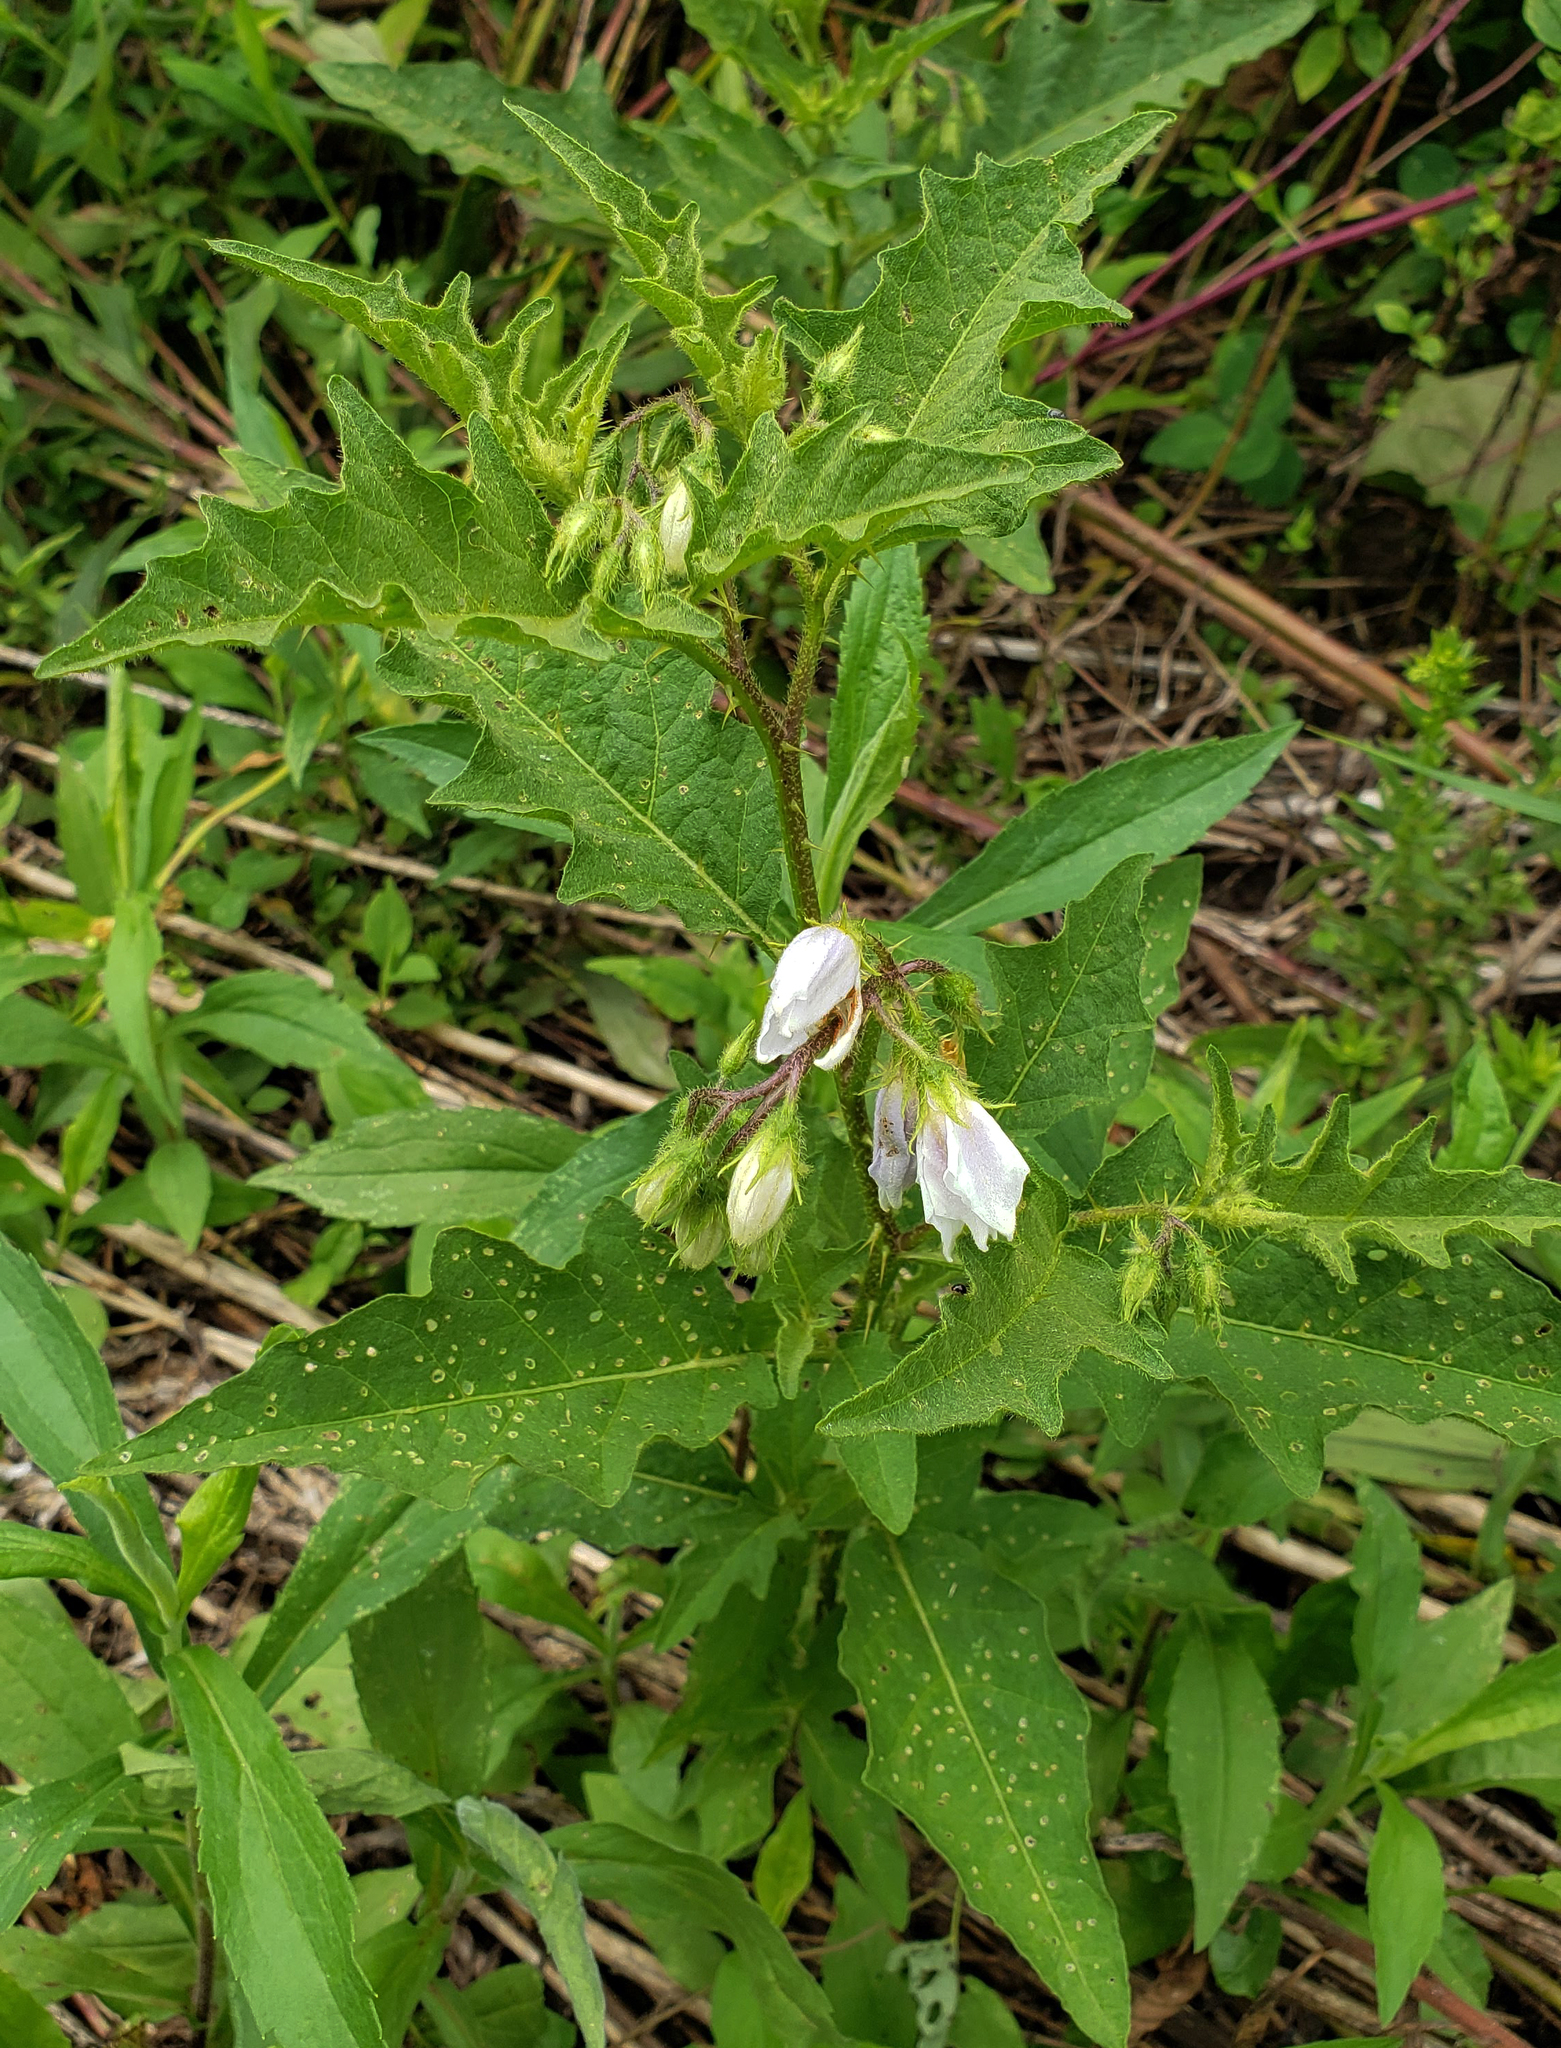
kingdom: Plantae
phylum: Tracheophyta
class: Magnoliopsida
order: Solanales
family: Solanaceae
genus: Solanum
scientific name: Solanum carolinense
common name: Horse-nettle
